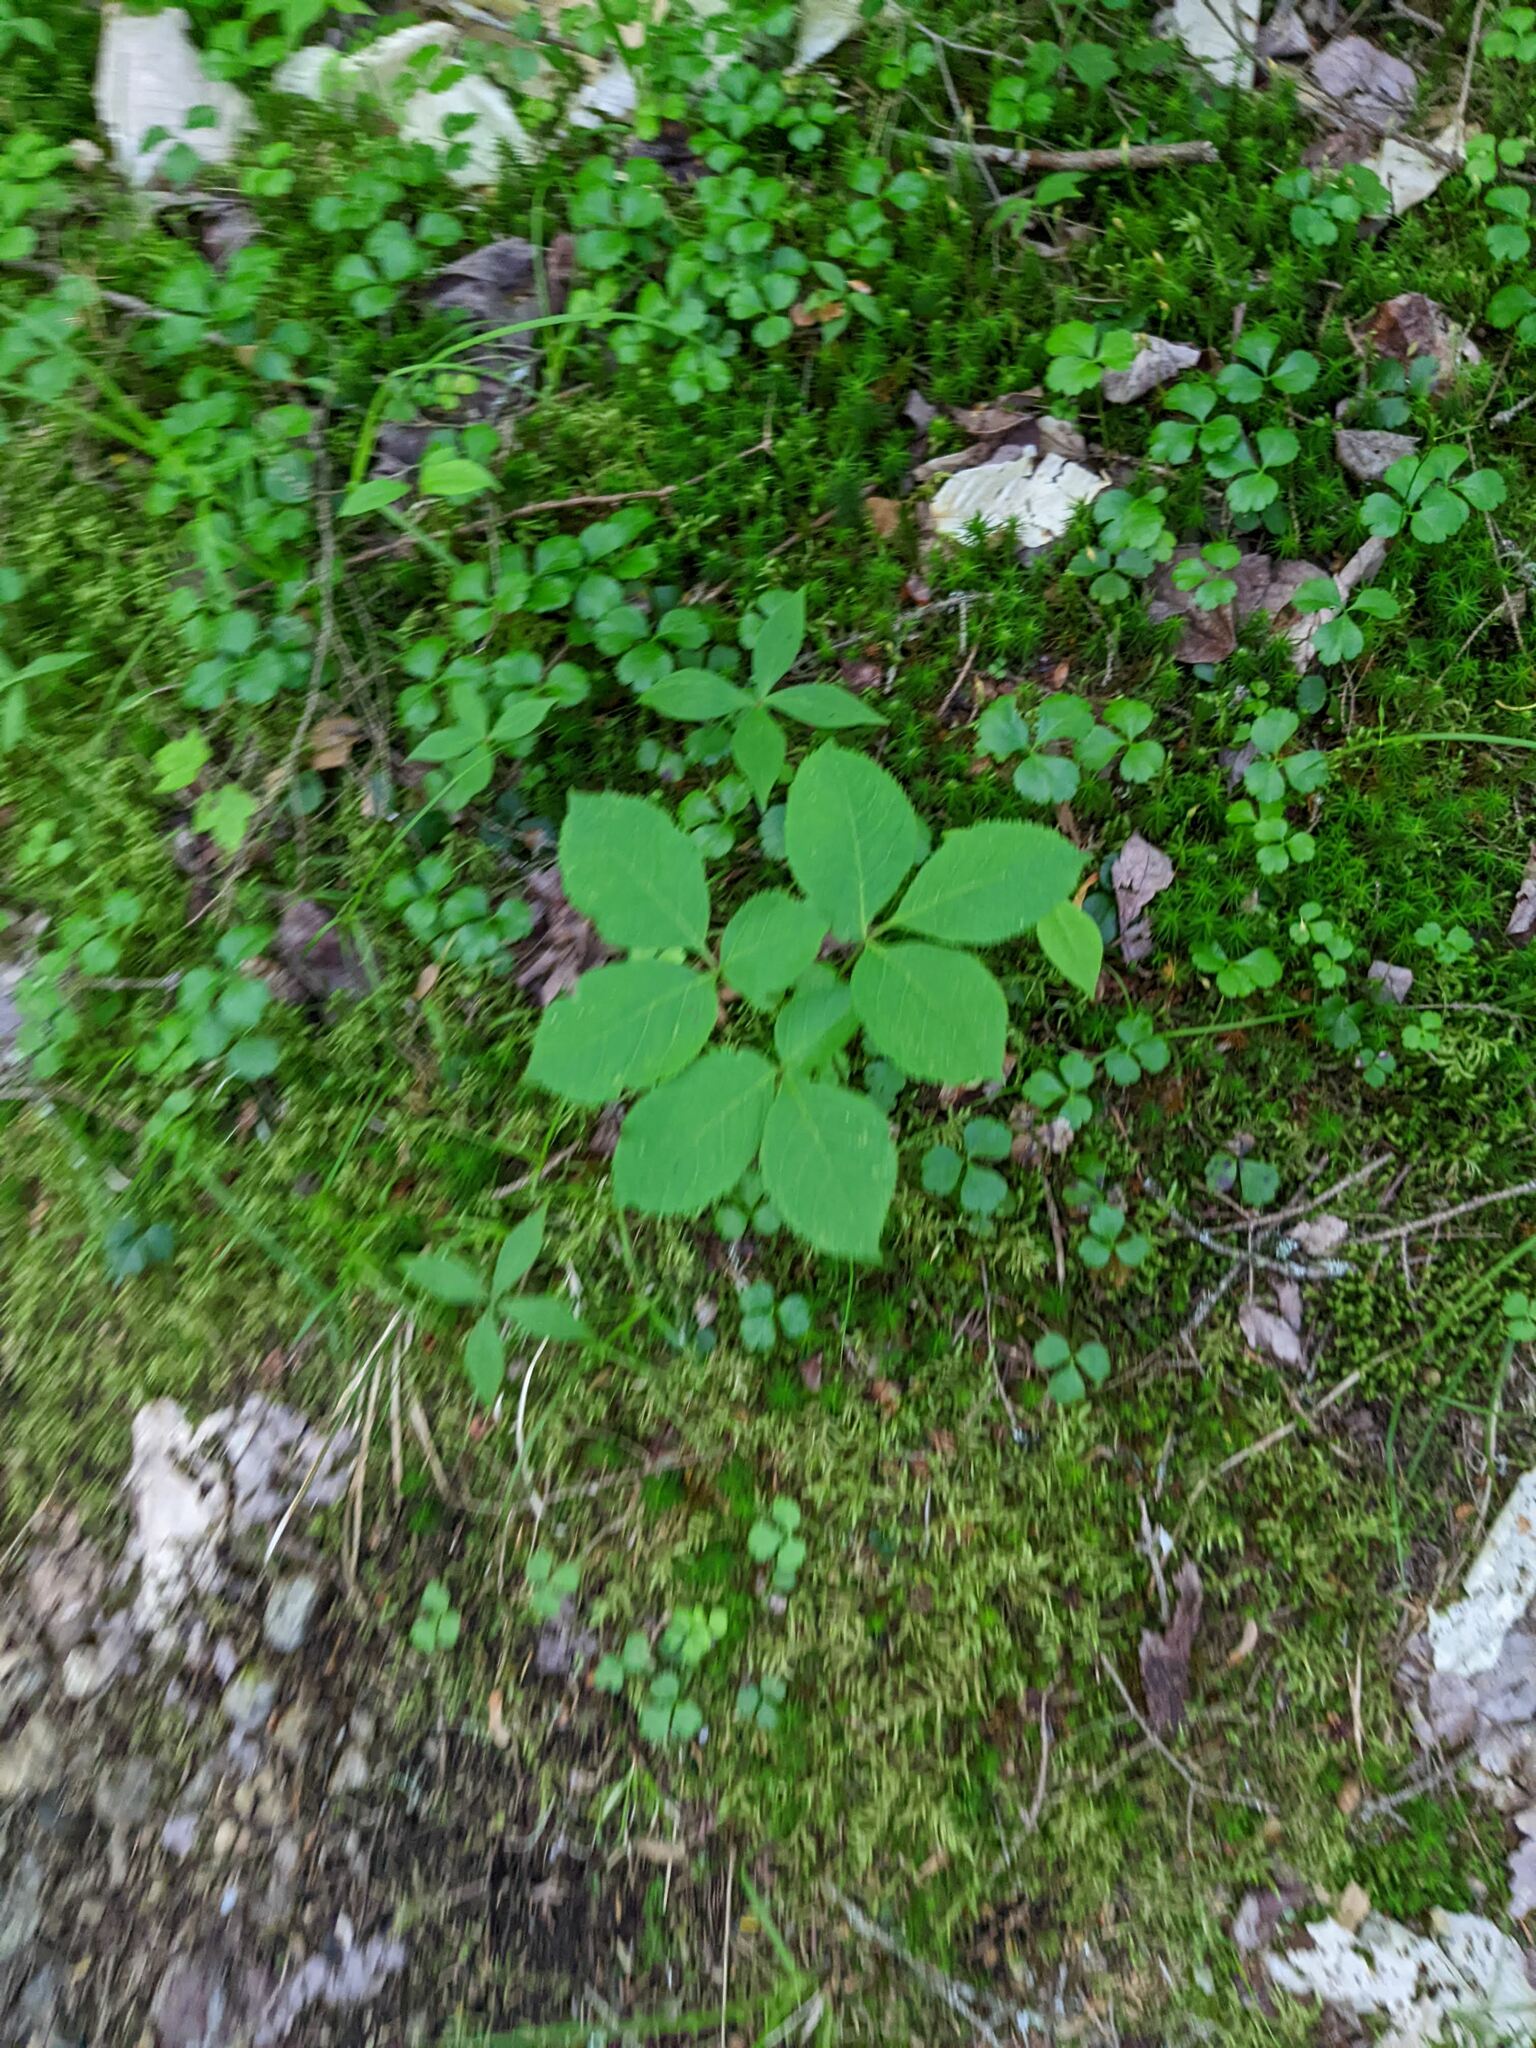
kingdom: Plantae
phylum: Tracheophyta
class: Magnoliopsida
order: Apiales
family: Araliaceae
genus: Aralia
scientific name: Aralia nudicaulis
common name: Wild sarsaparilla
